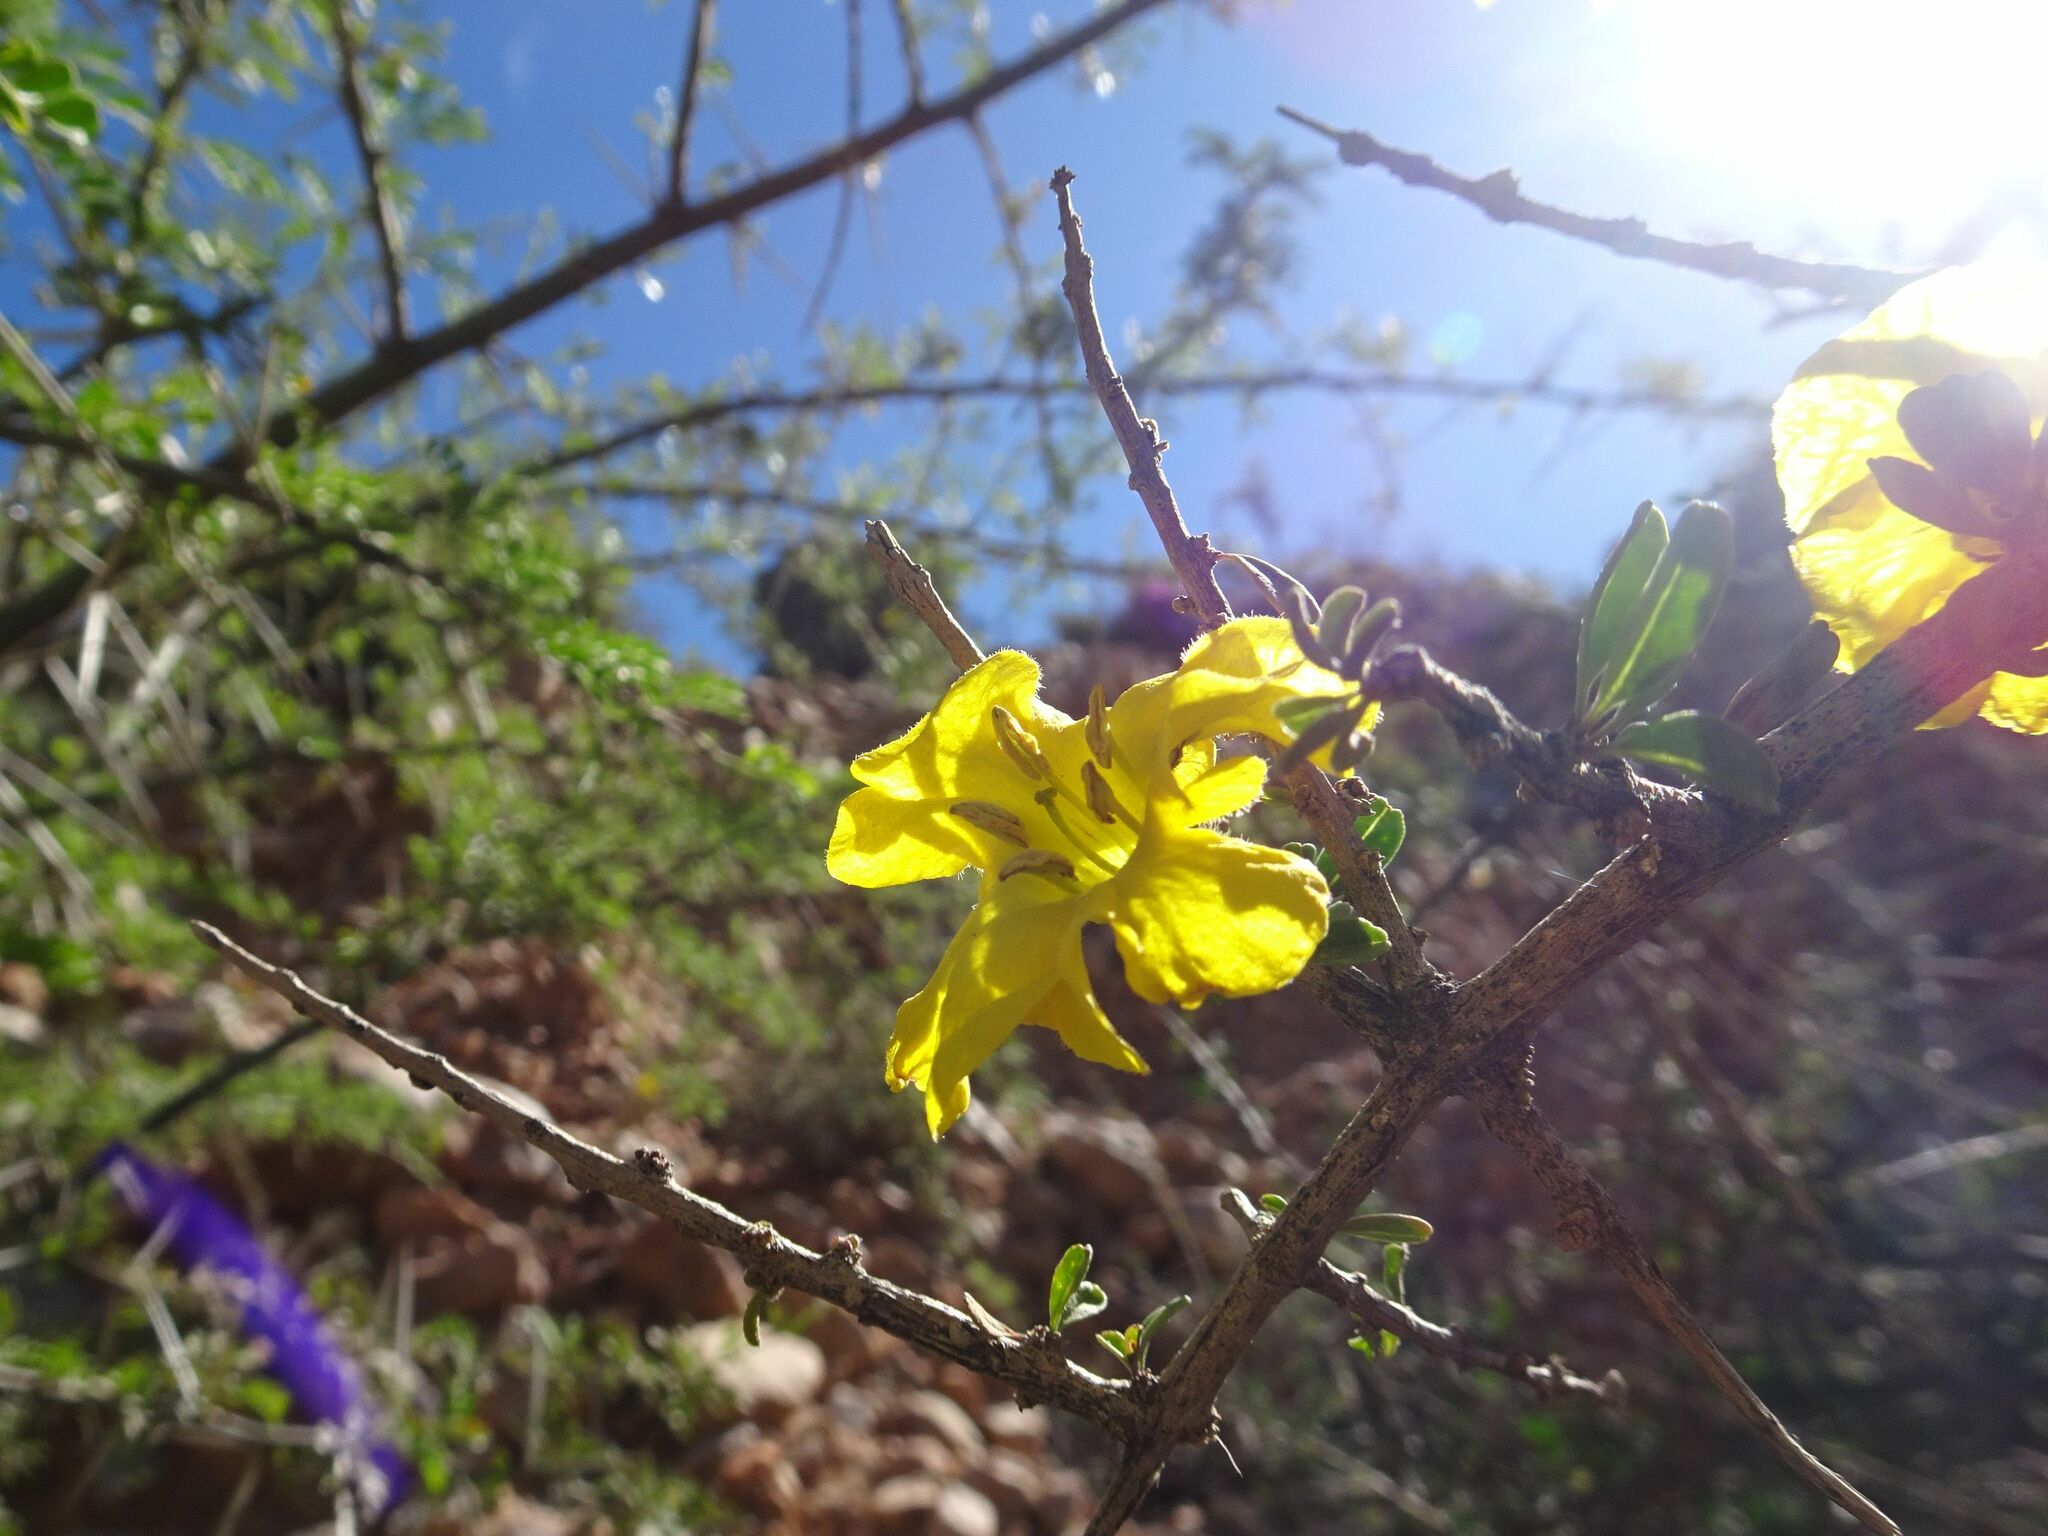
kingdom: Plantae
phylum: Tracheophyta
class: Magnoliopsida
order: Lamiales
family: Bignoniaceae
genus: Rhigozum
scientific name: Rhigozum obovatum
